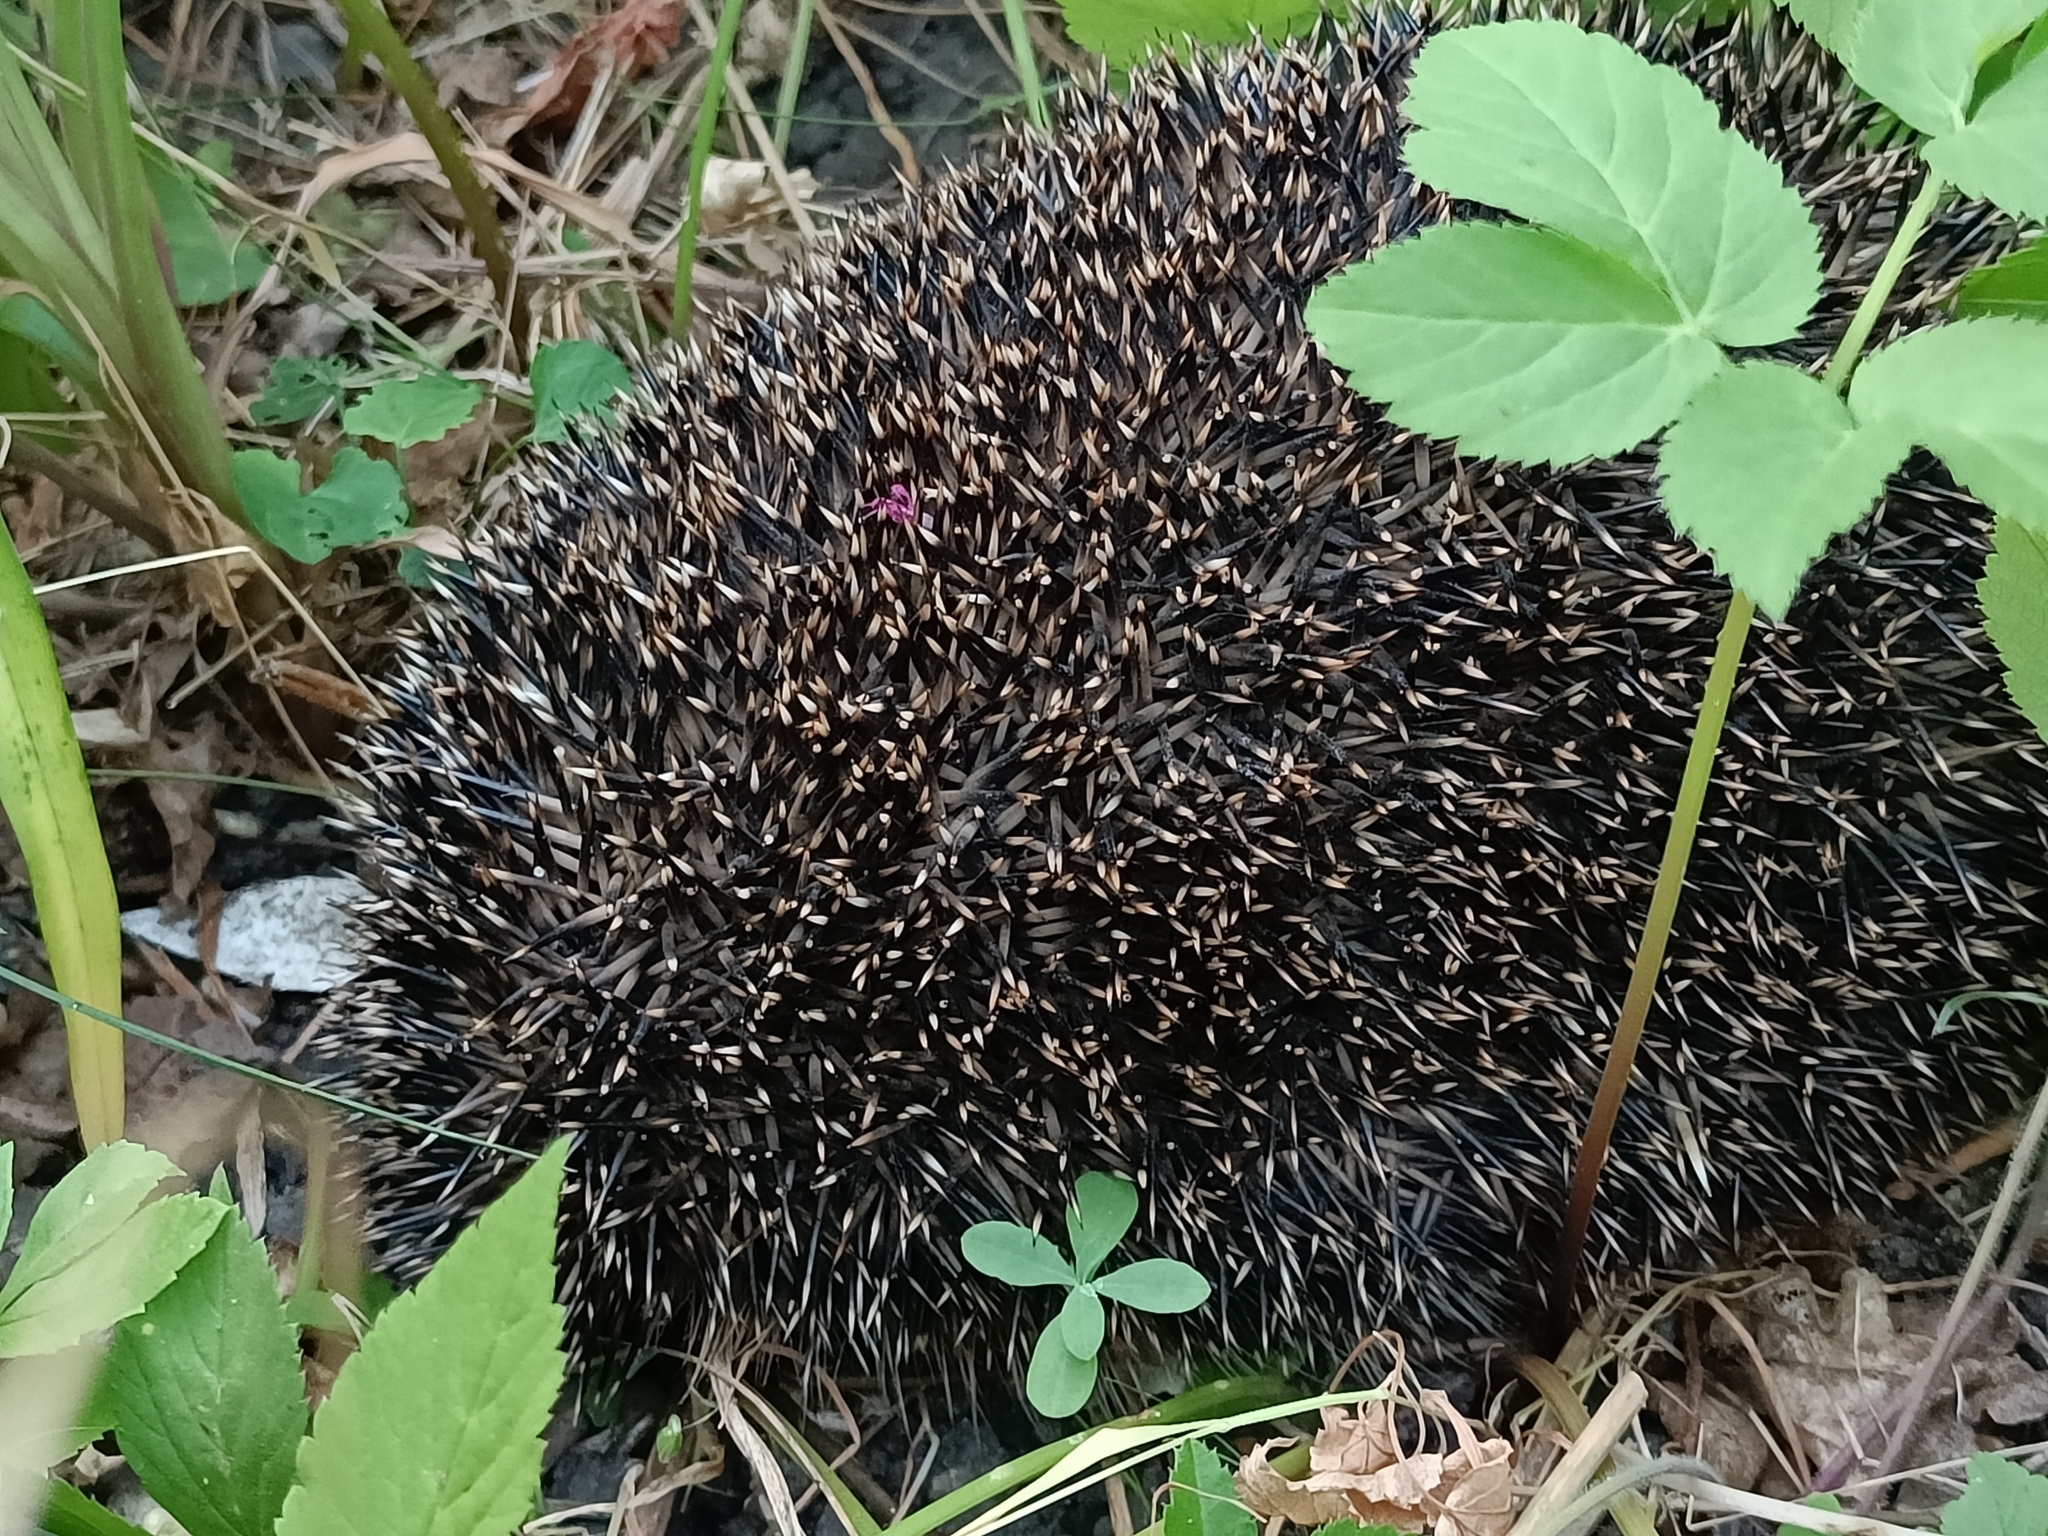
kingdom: Animalia
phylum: Chordata
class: Mammalia
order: Erinaceomorpha
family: Erinaceidae
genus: Erinaceus
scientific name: Erinaceus europaeus
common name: West european hedgehog
